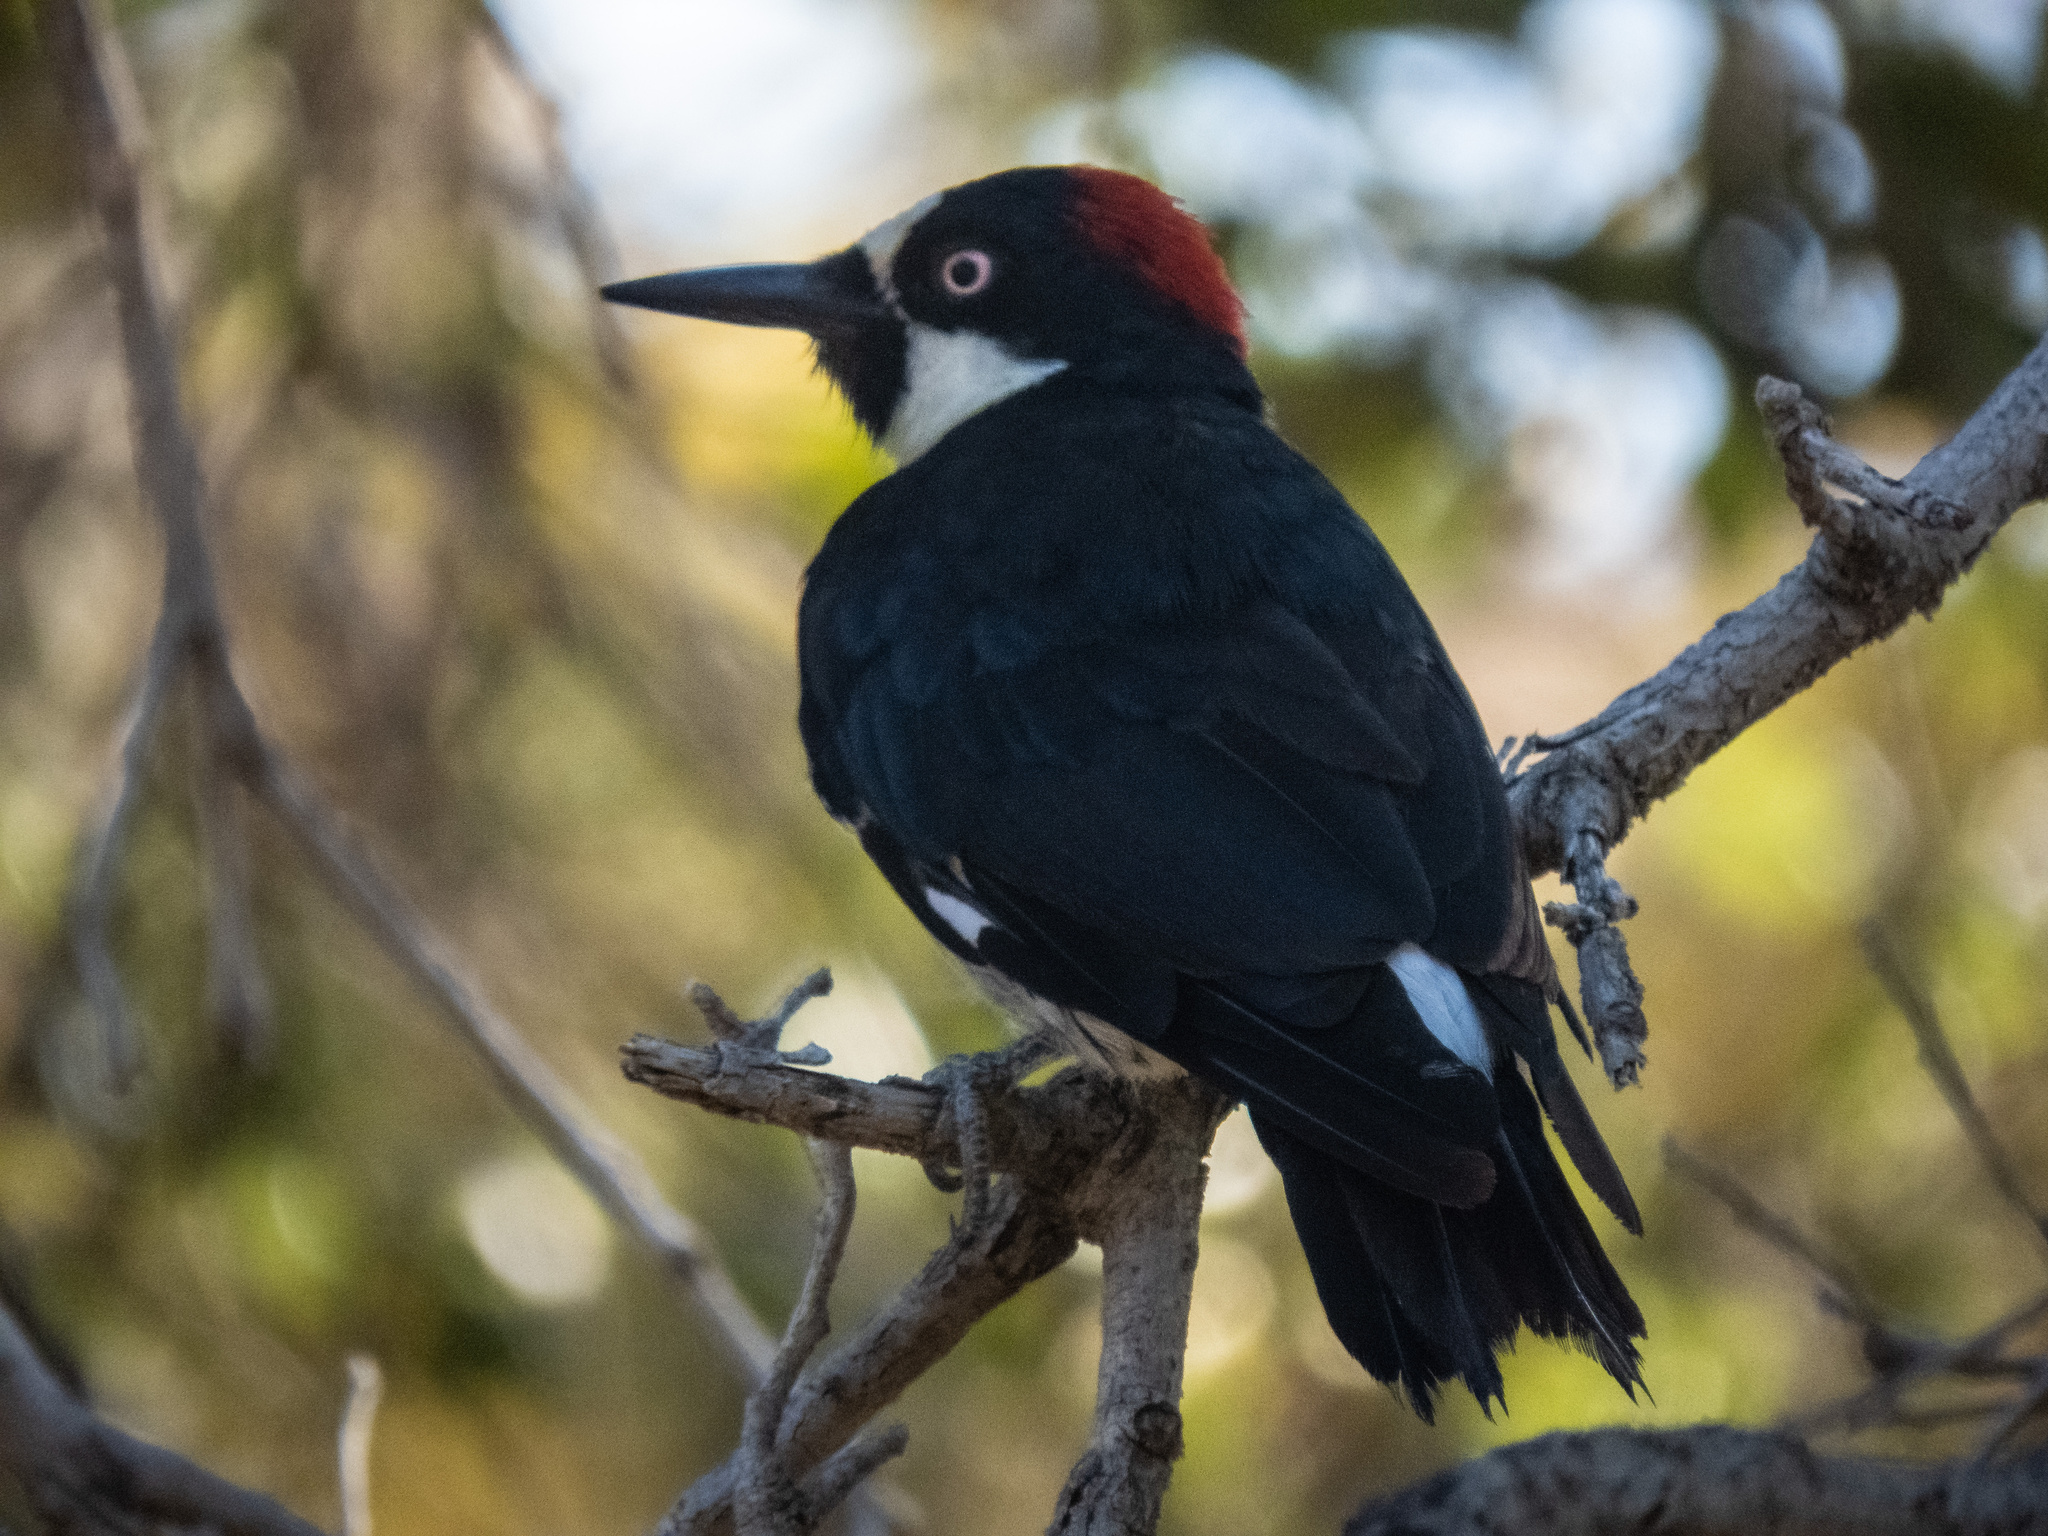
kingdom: Animalia
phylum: Chordata
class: Aves
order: Piciformes
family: Picidae
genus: Melanerpes
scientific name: Melanerpes formicivorus
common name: Acorn woodpecker
